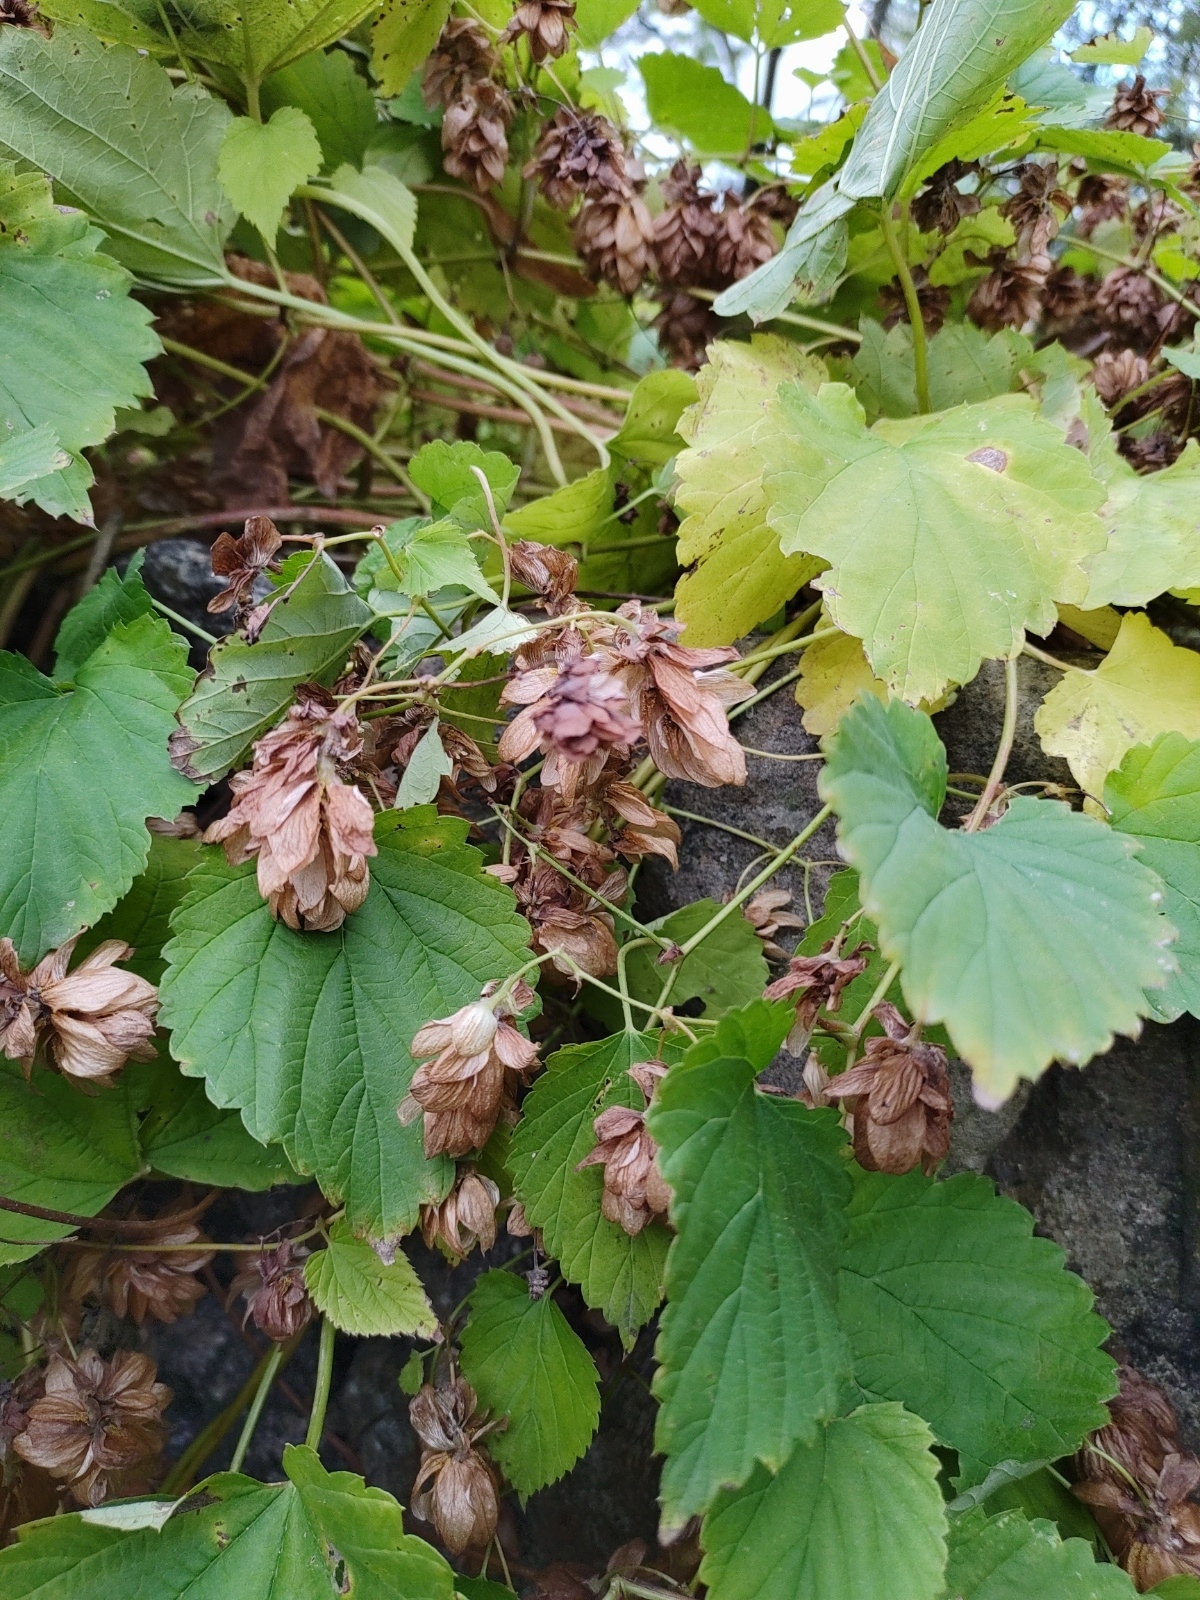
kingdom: Plantae
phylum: Tracheophyta
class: Magnoliopsida
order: Rosales
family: Cannabaceae
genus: Humulus
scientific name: Humulus lupulus
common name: Hop
